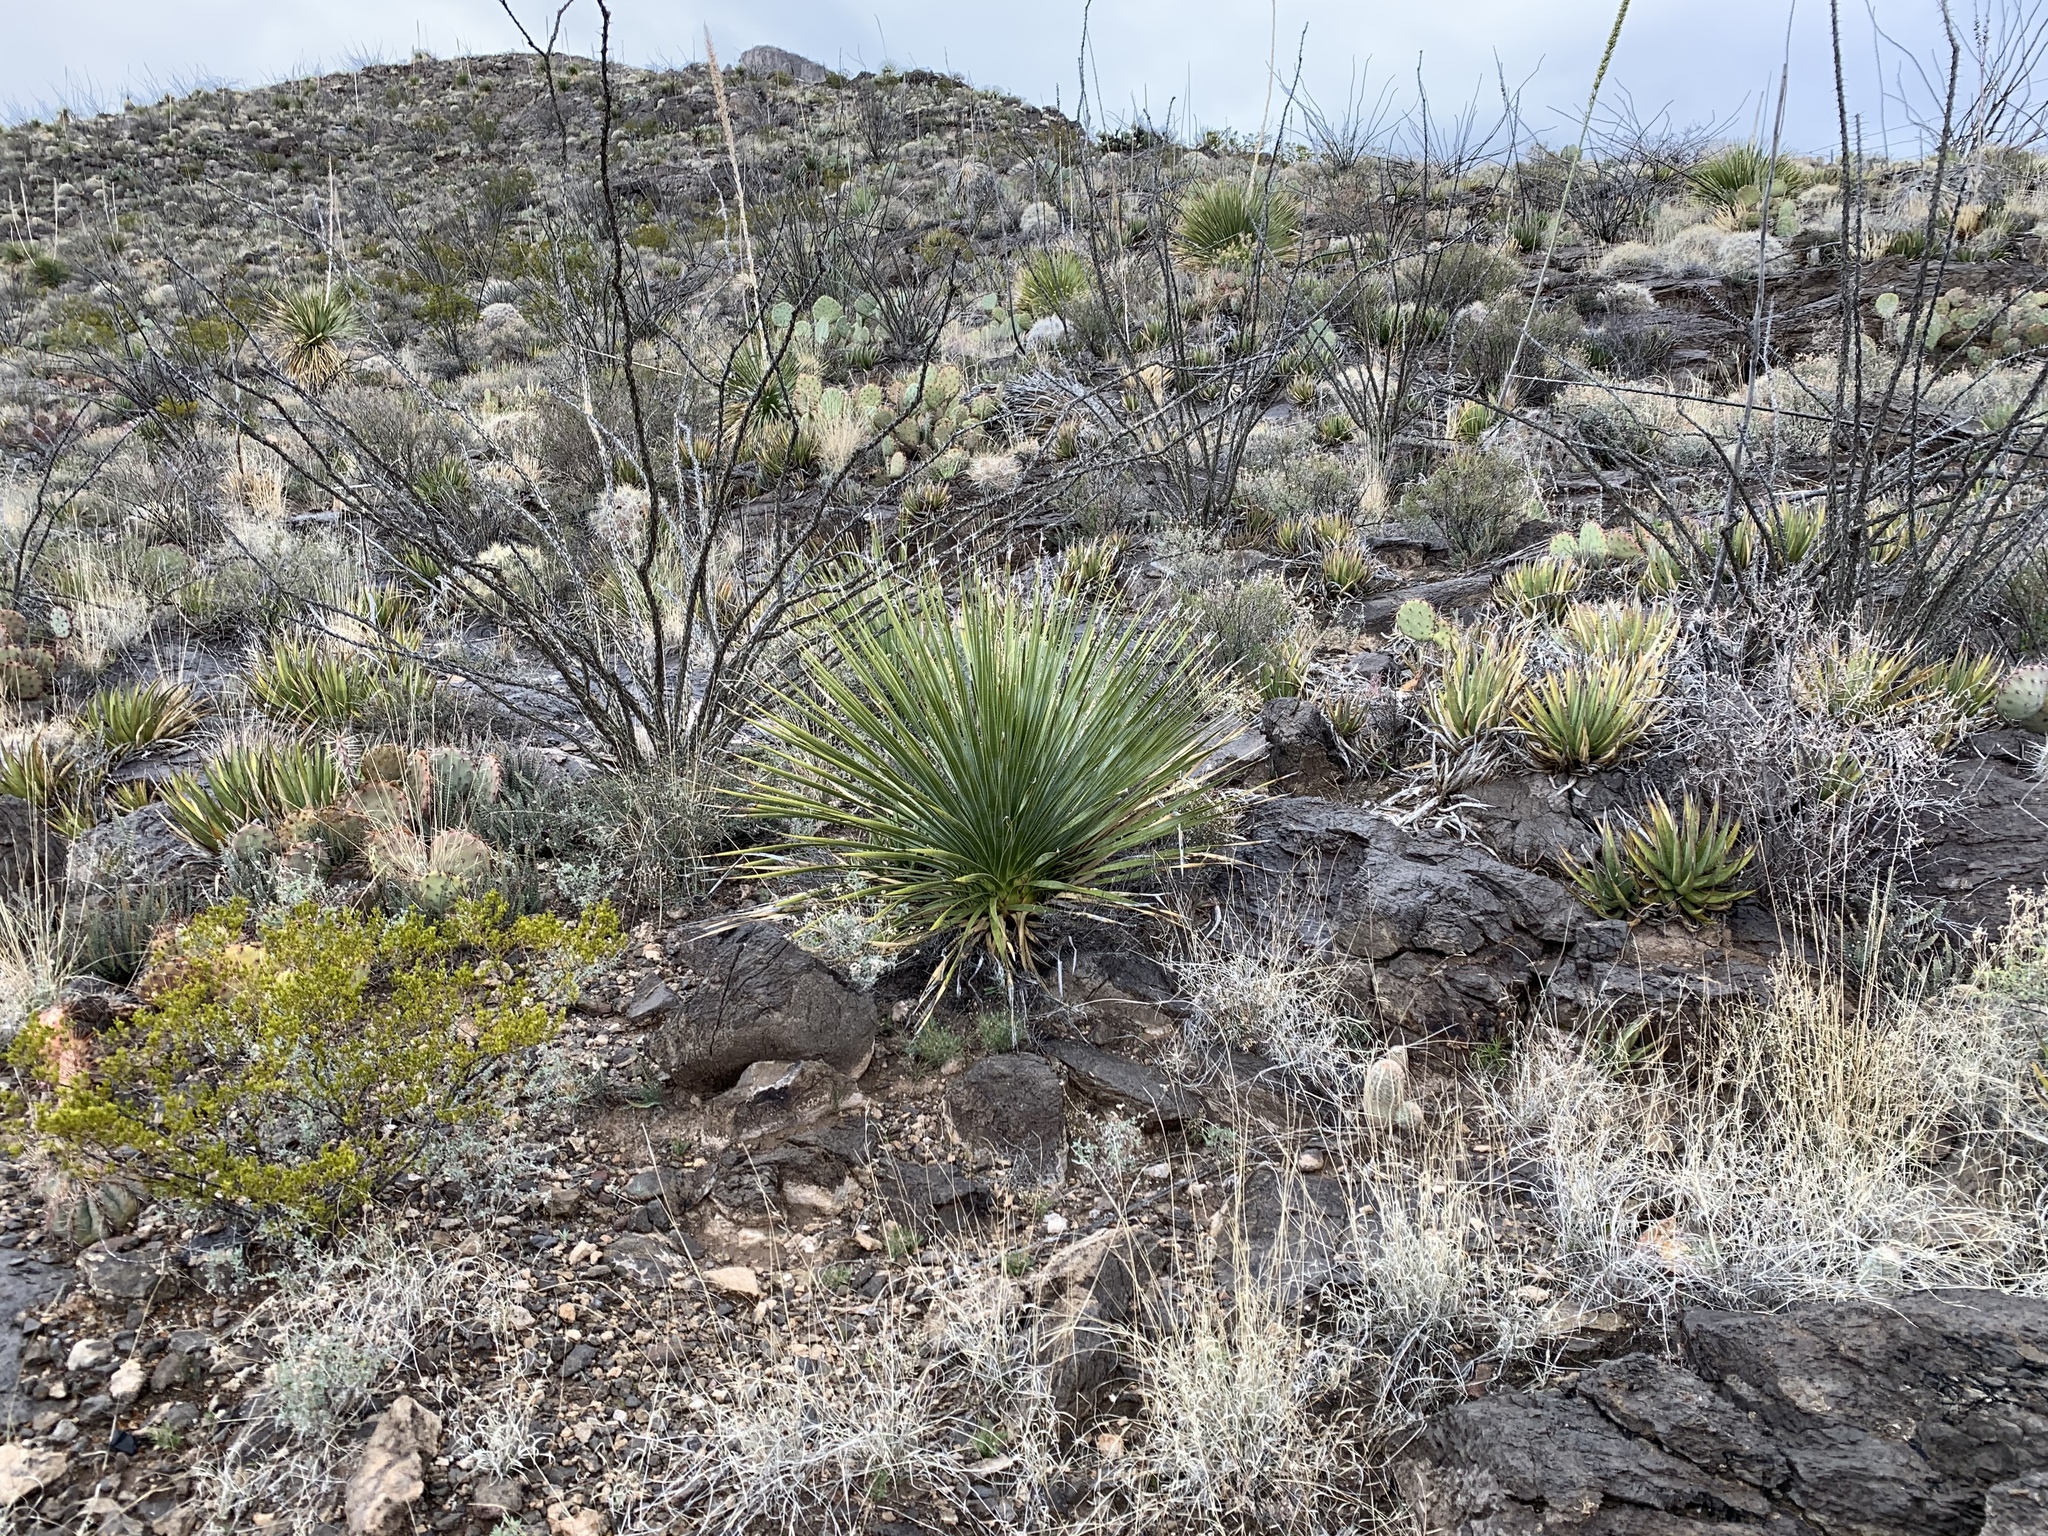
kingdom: Plantae
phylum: Tracheophyta
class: Liliopsida
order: Asparagales
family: Asparagaceae
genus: Dasylirion
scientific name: Dasylirion wheeleri
